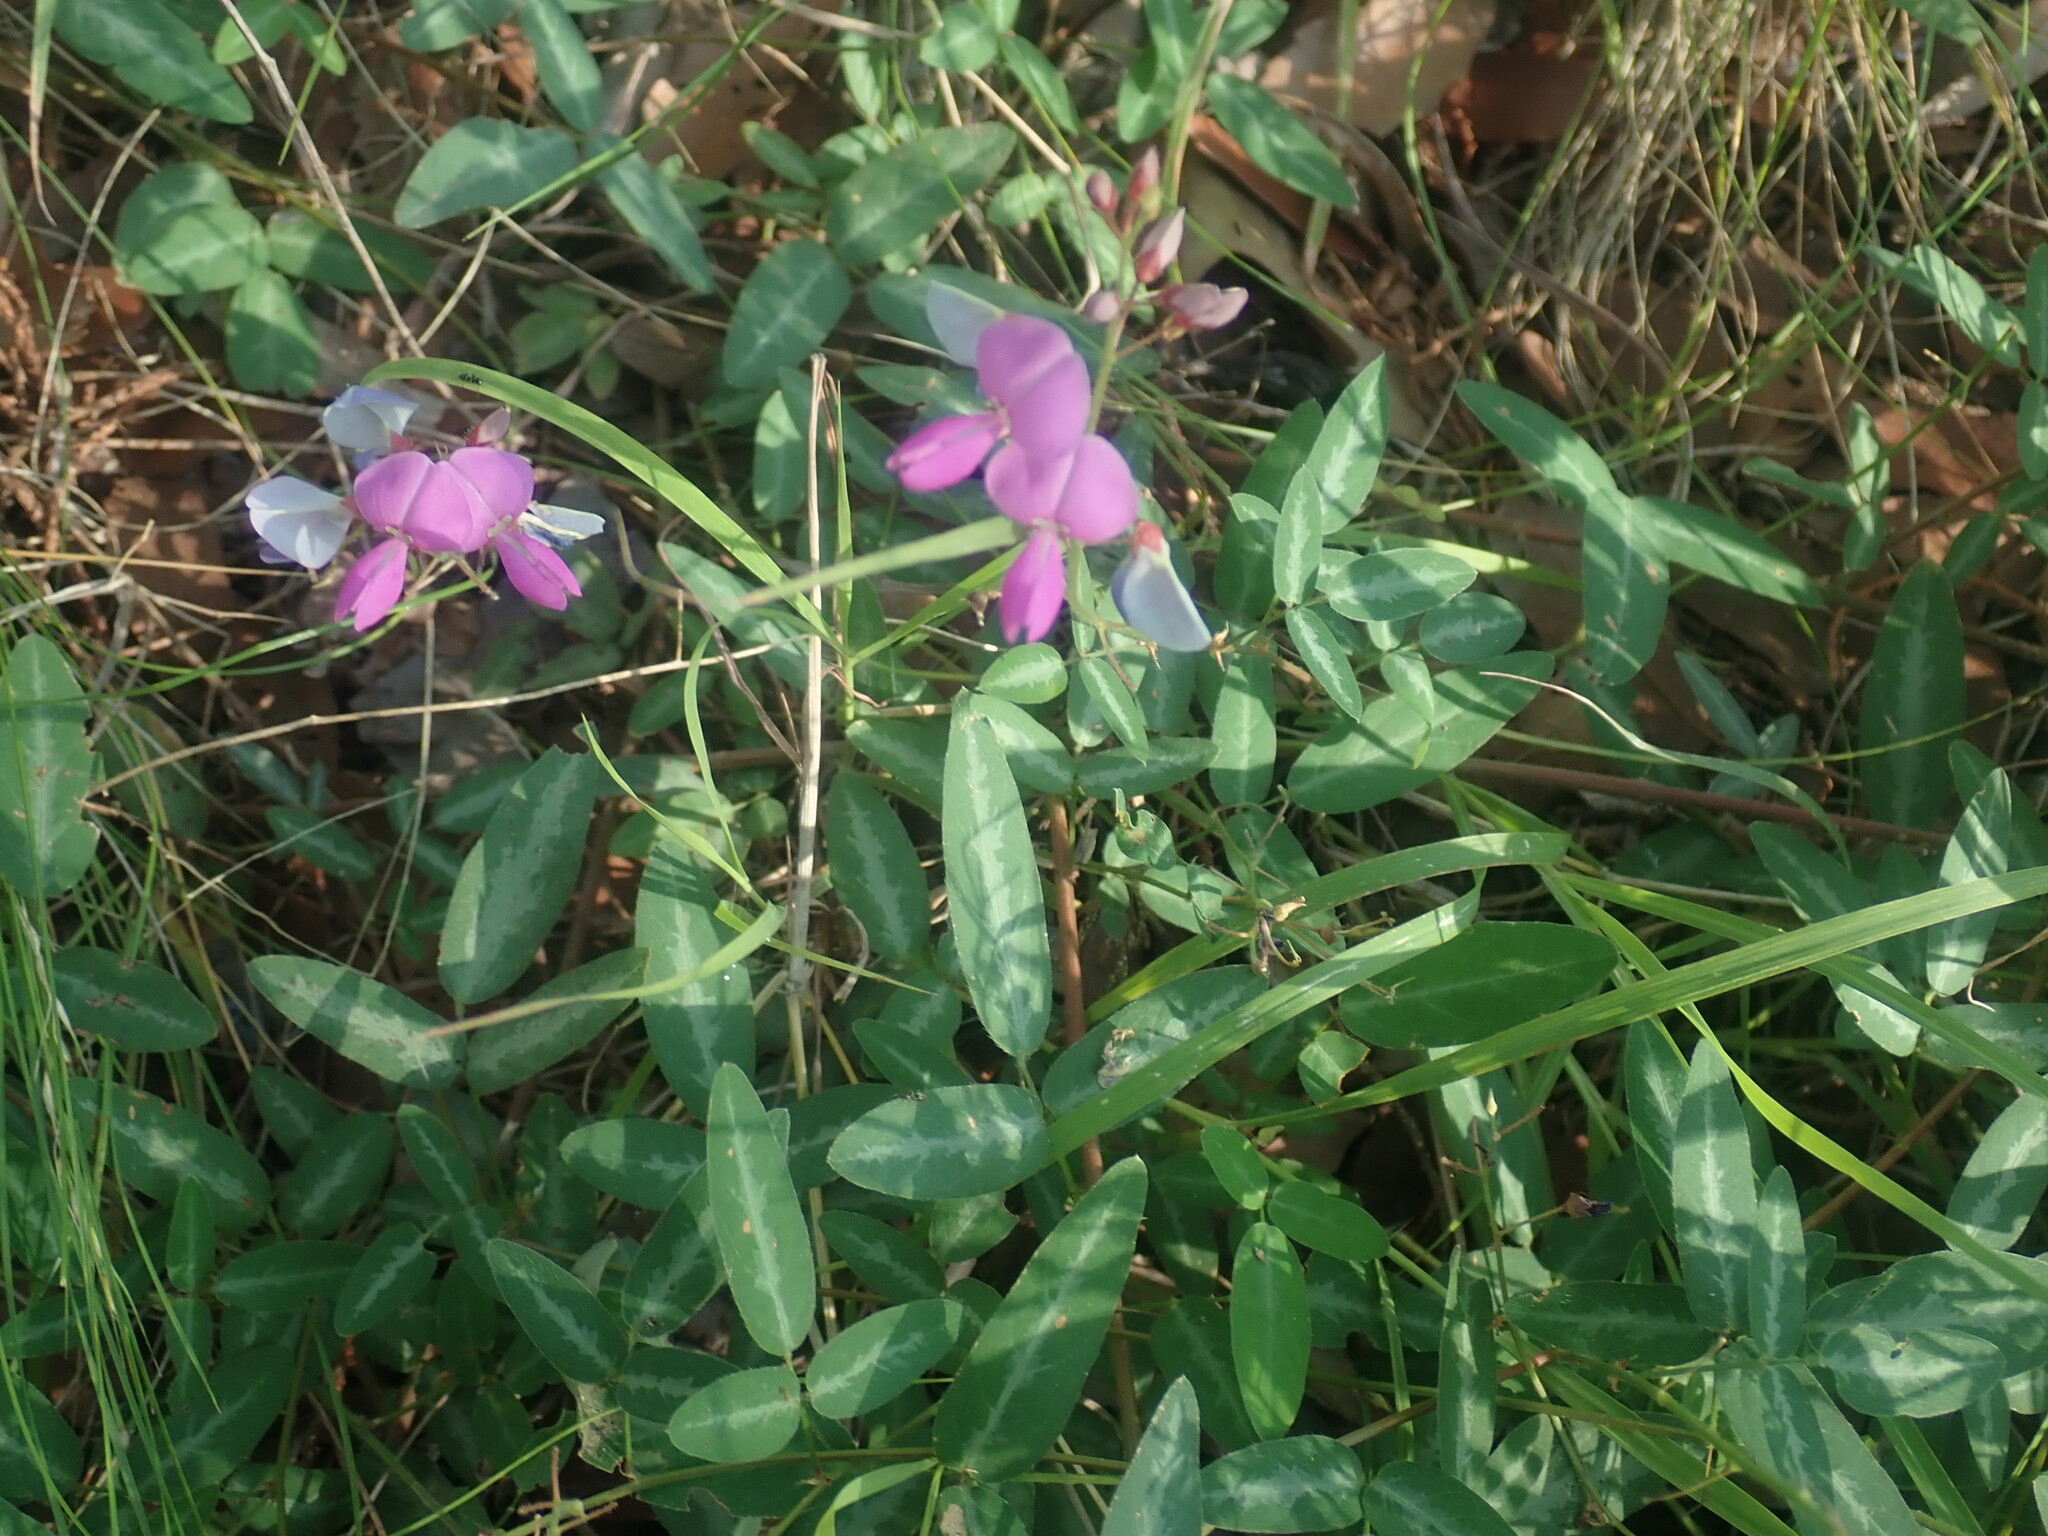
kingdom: Plantae
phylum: Tracheophyta
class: Magnoliopsida
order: Fabales
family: Fabaceae
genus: Desmodium
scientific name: Desmodium batocaulon
